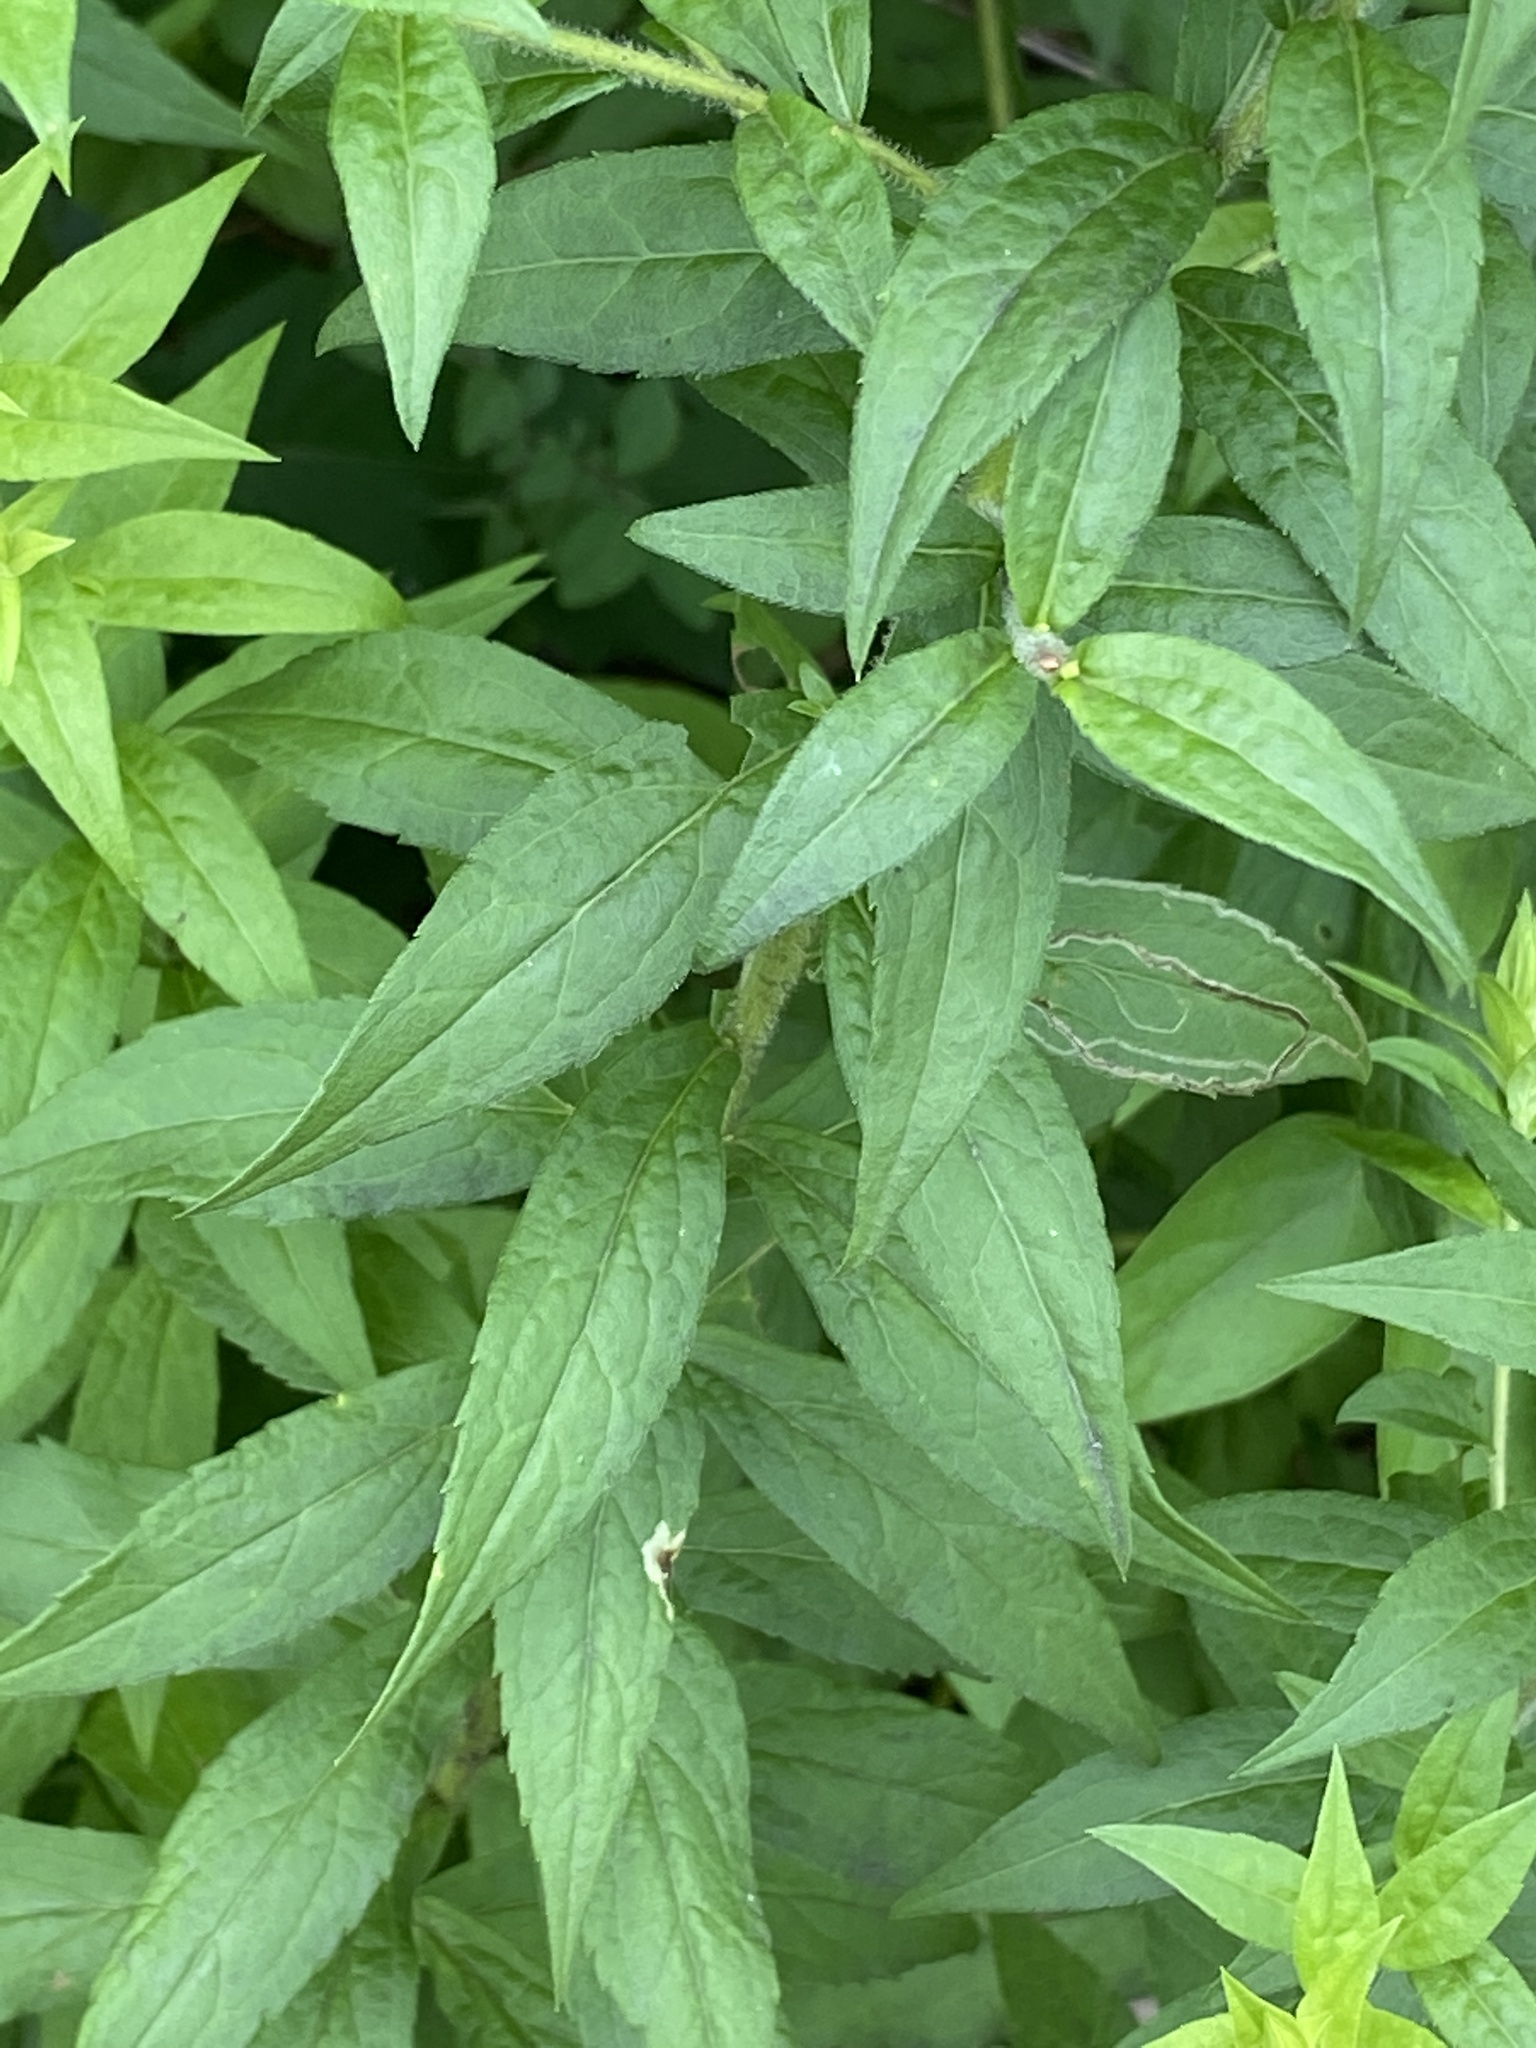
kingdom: Plantae
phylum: Tracheophyta
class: Magnoliopsida
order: Asterales
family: Asteraceae
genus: Solidago
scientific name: Solidago rugosa
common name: Rough-stemmed goldenrod
